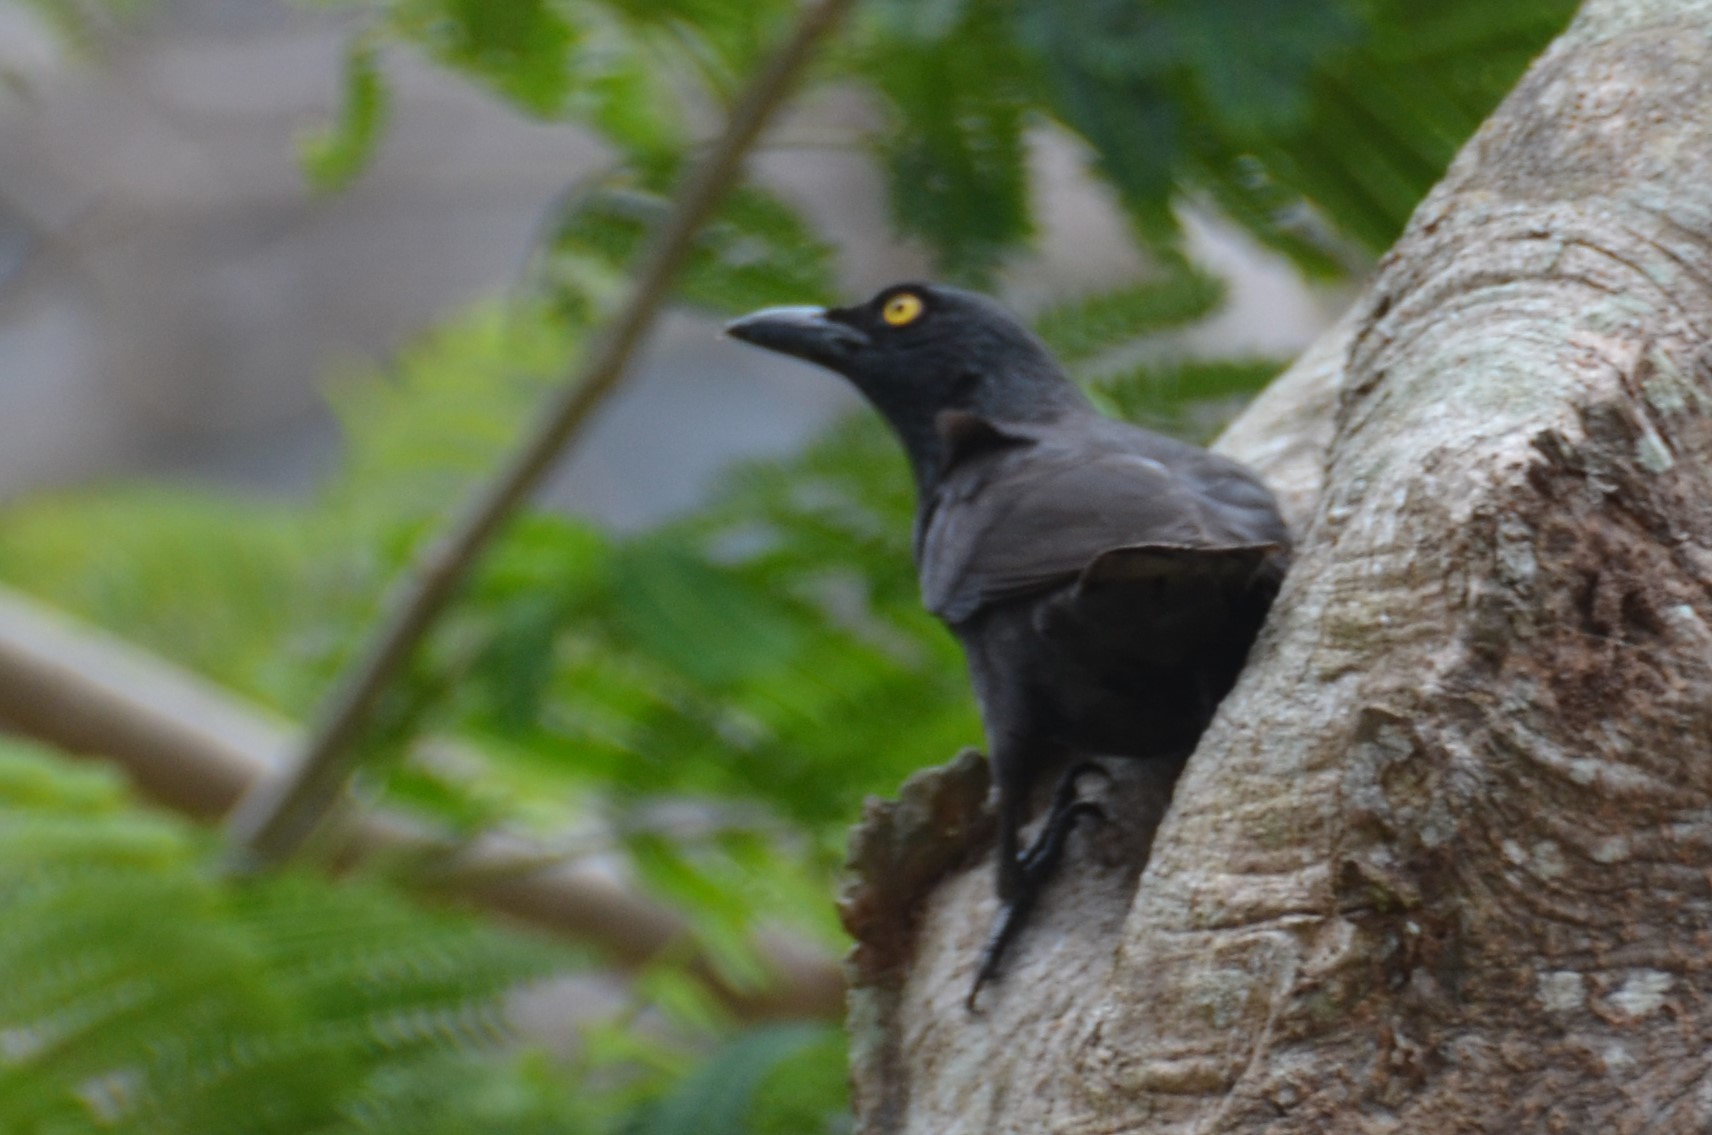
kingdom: Animalia
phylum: Chordata
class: Aves
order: Passeriformes
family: Sturnidae
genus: Aplonis
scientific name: Aplonis opaca
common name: Micronesian starling
